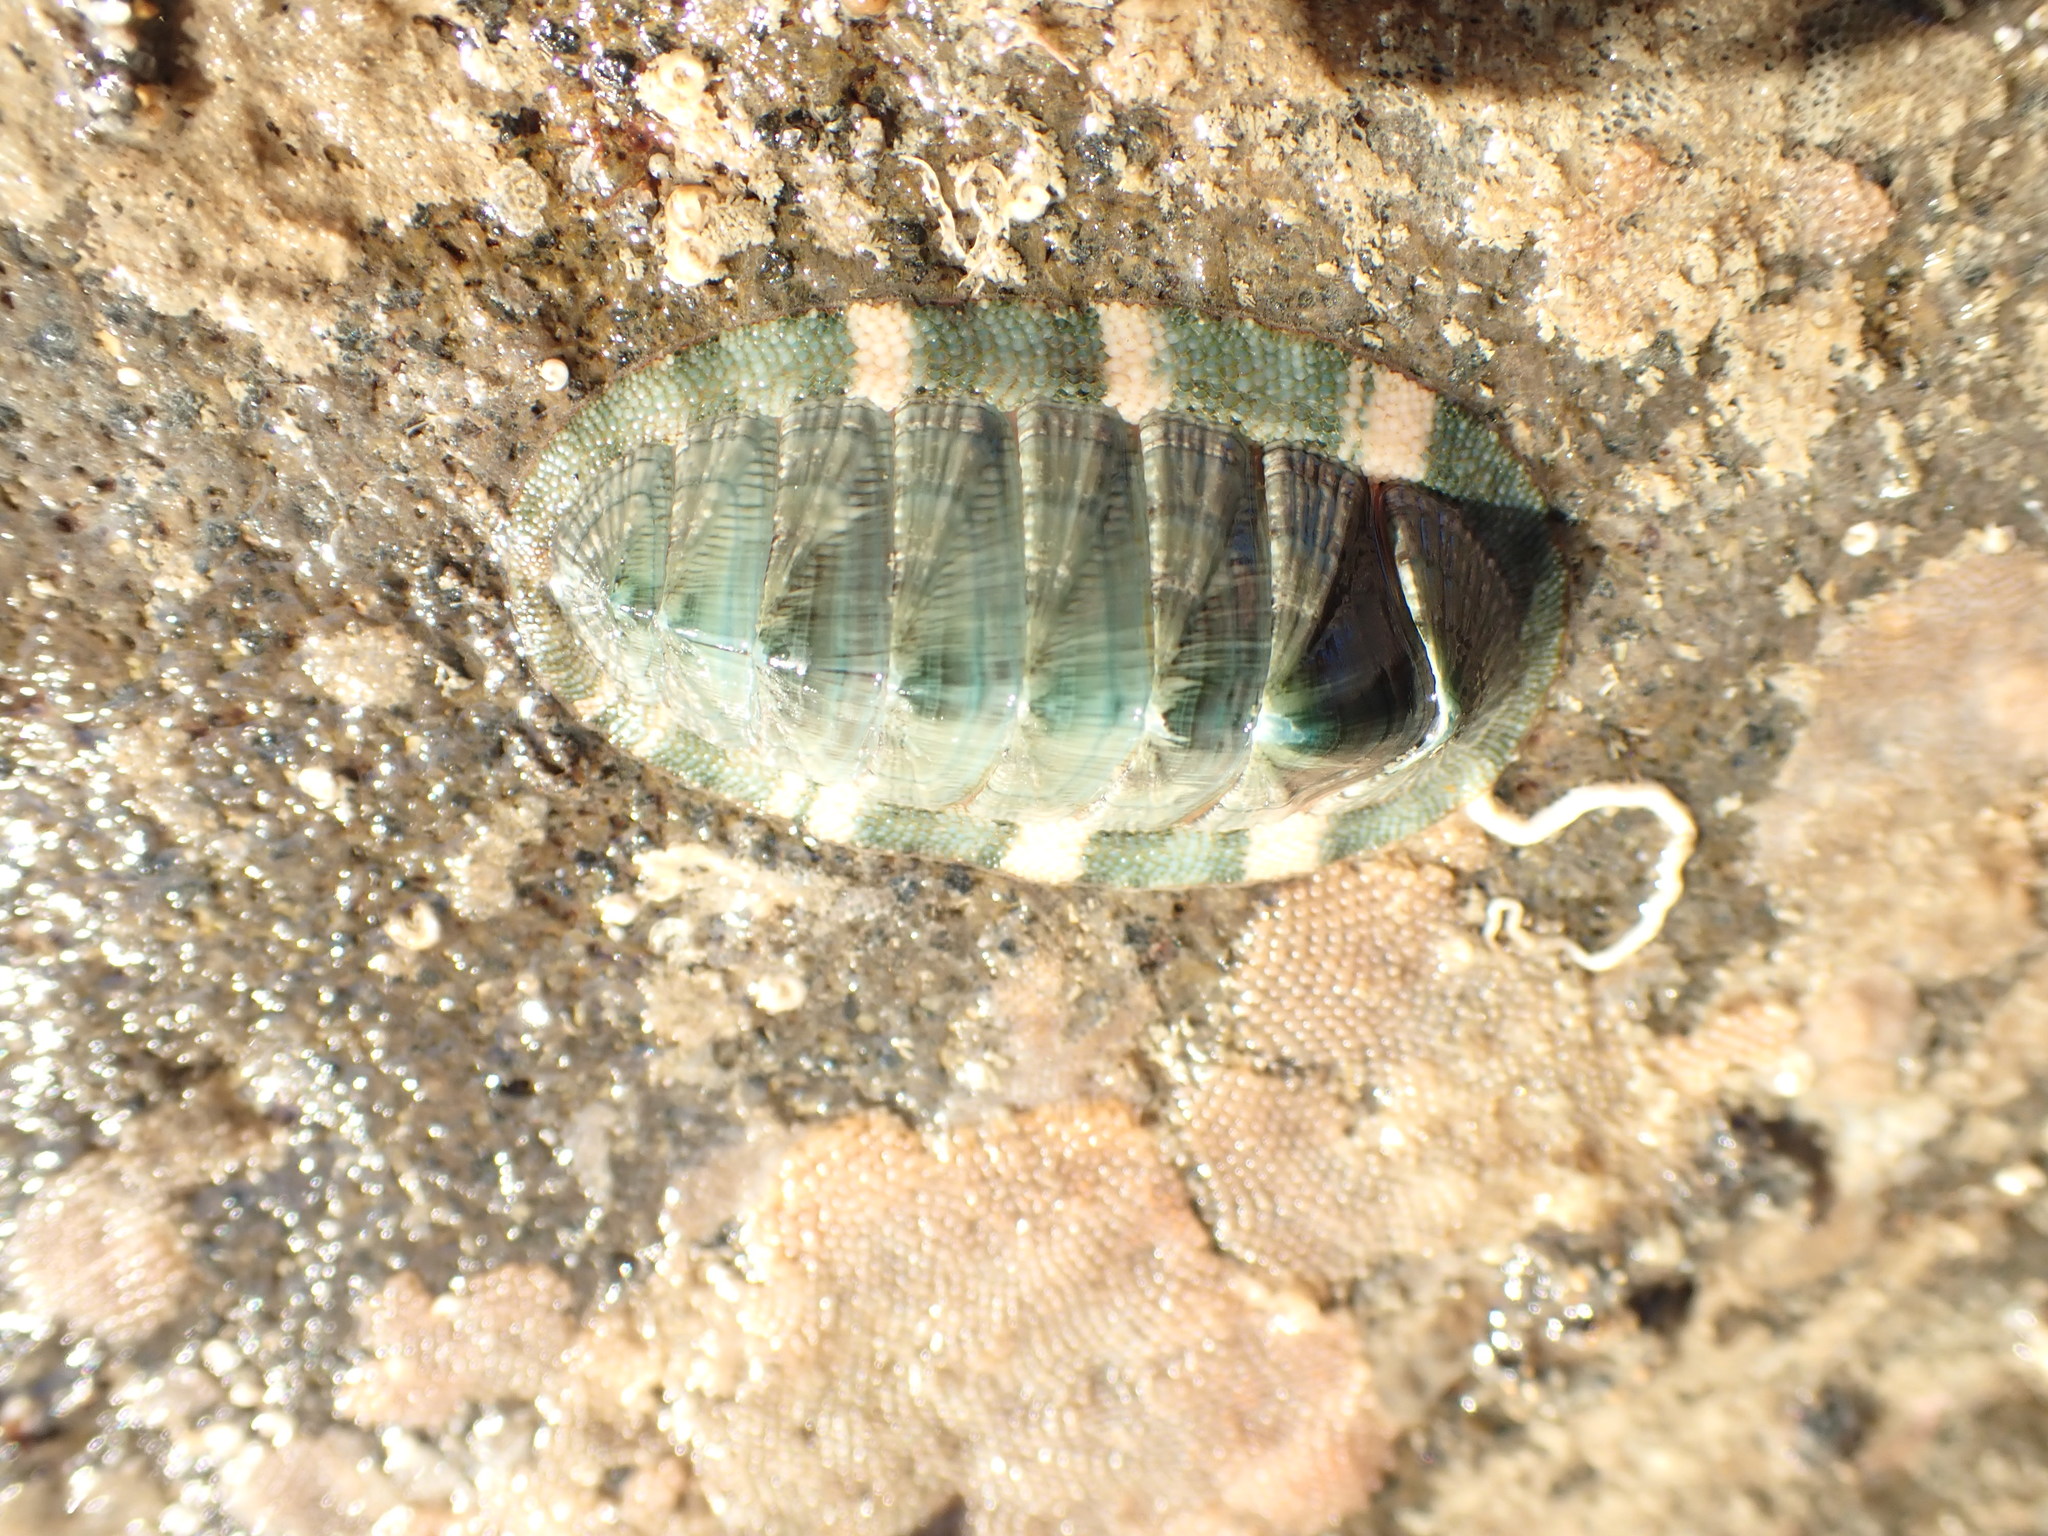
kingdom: Animalia
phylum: Mollusca
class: Polyplacophora
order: Chitonida
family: Chitonidae
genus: Rhyssoplax
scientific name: Rhyssoplax aerea
